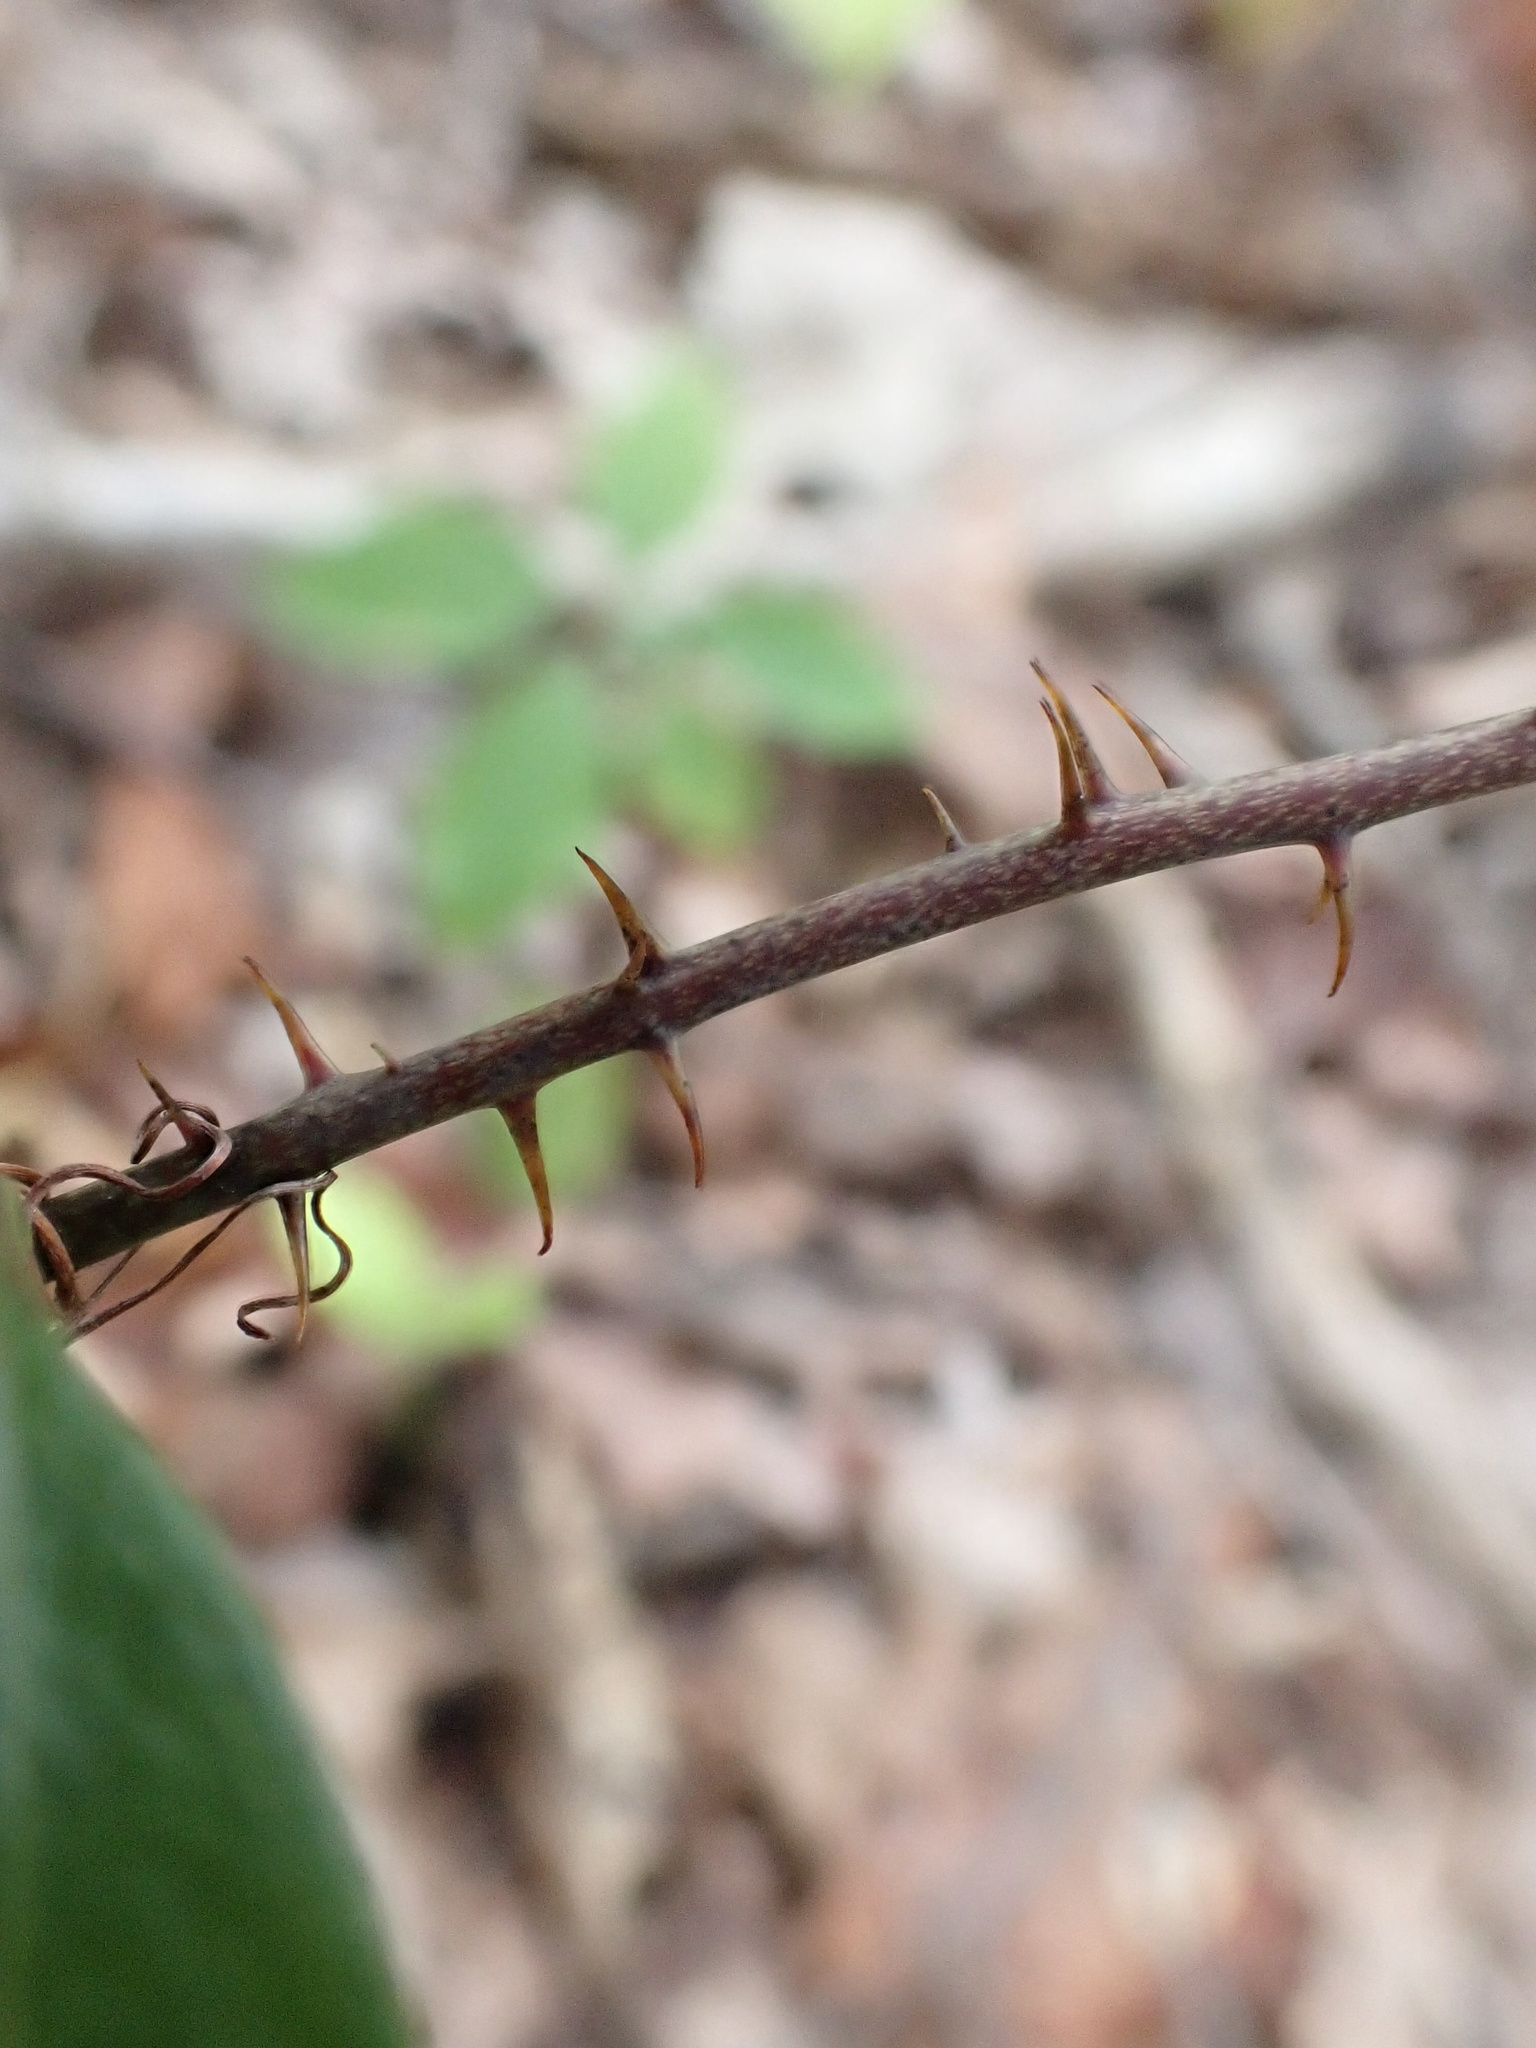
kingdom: Plantae
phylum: Tracheophyta
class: Liliopsida
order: Liliales
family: Smilacaceae
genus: Smilax
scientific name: Smilax glauca
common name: Cat greenbrier
